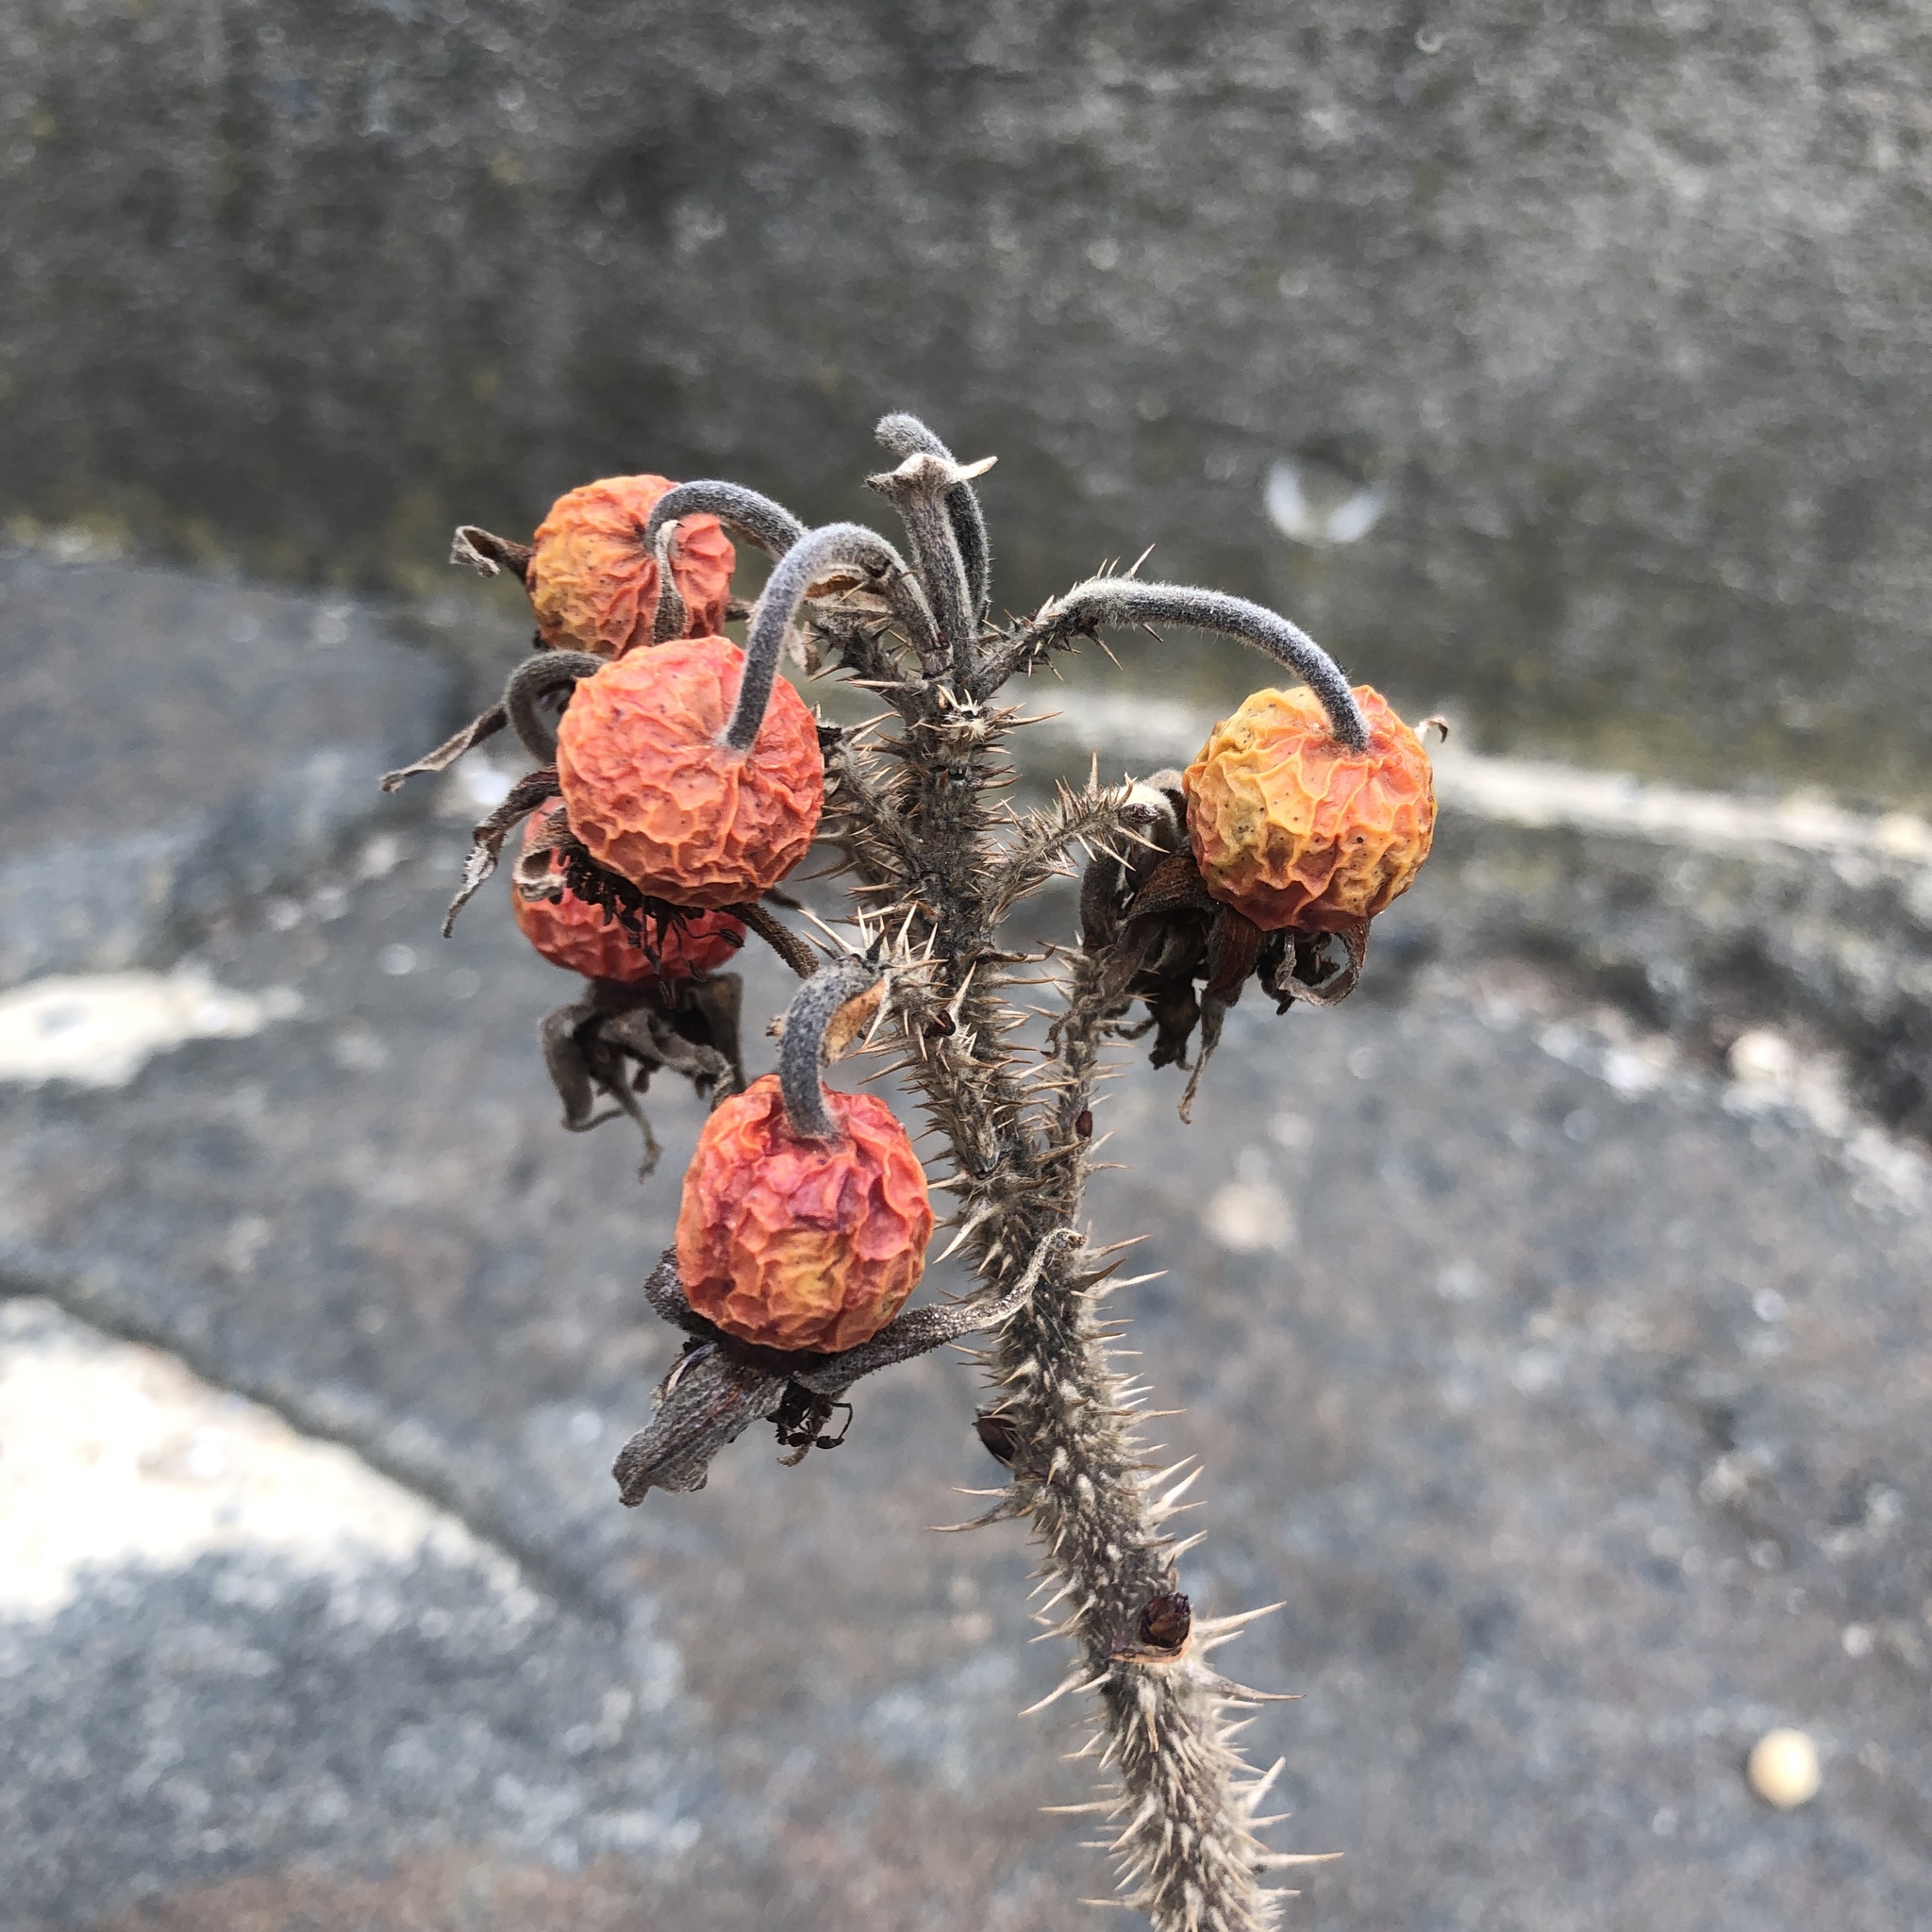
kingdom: Plantae
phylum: Tracheophyta
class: Magnoliopsida
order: Rosales
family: Rosaceae
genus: Rosa
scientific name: Rosa rugosa
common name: Japanese rose
